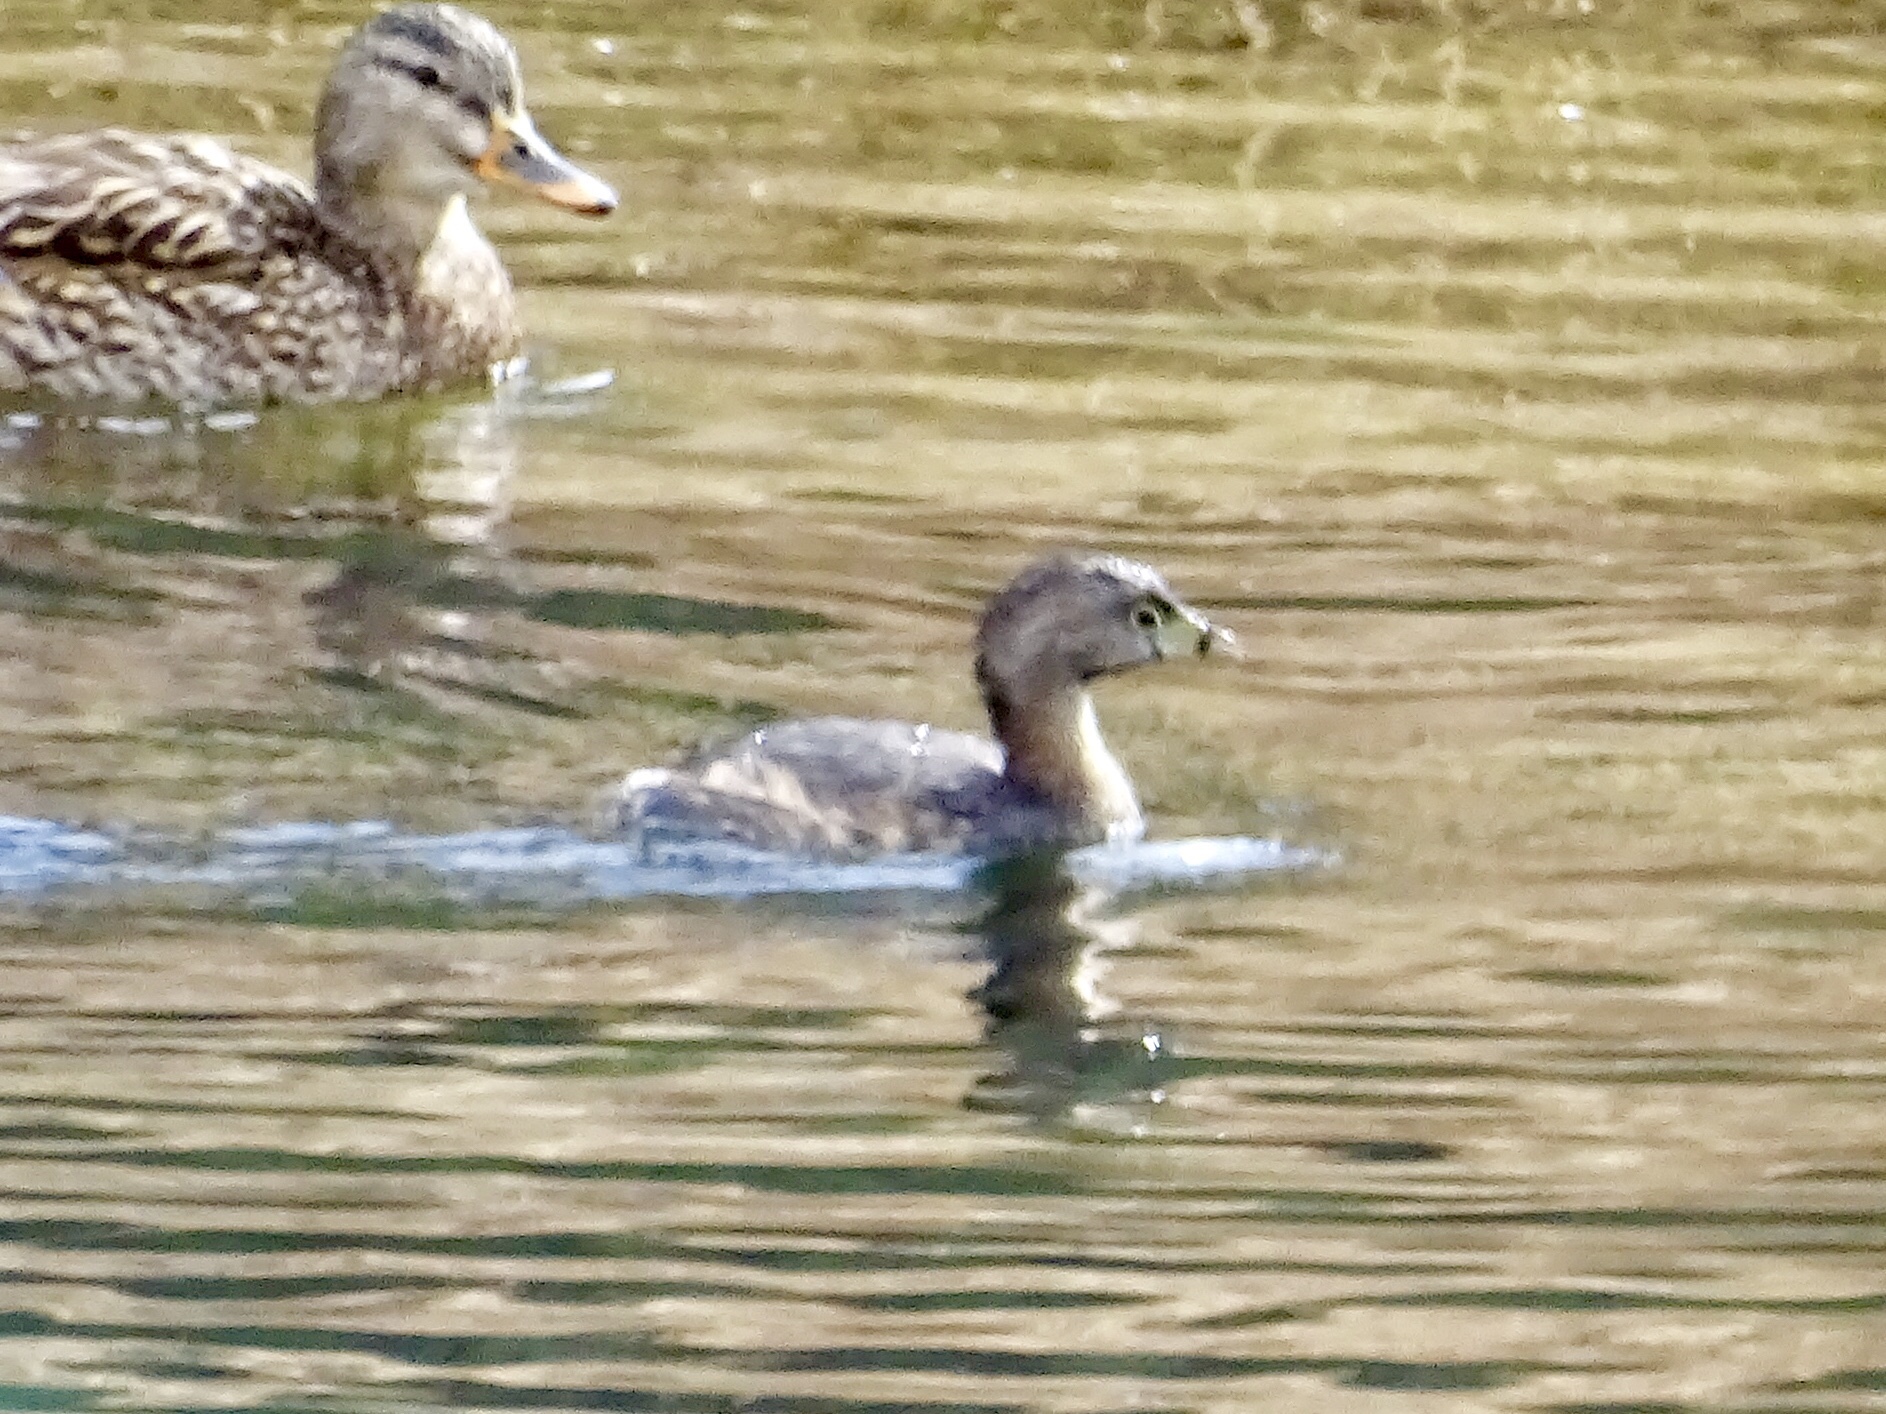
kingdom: Animalia
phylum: Chordata
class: Aves
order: Podicipediformes
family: Podicipedidae
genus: Podilymbus
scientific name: Podilymbus podiceps
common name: Pied-billed grebe
